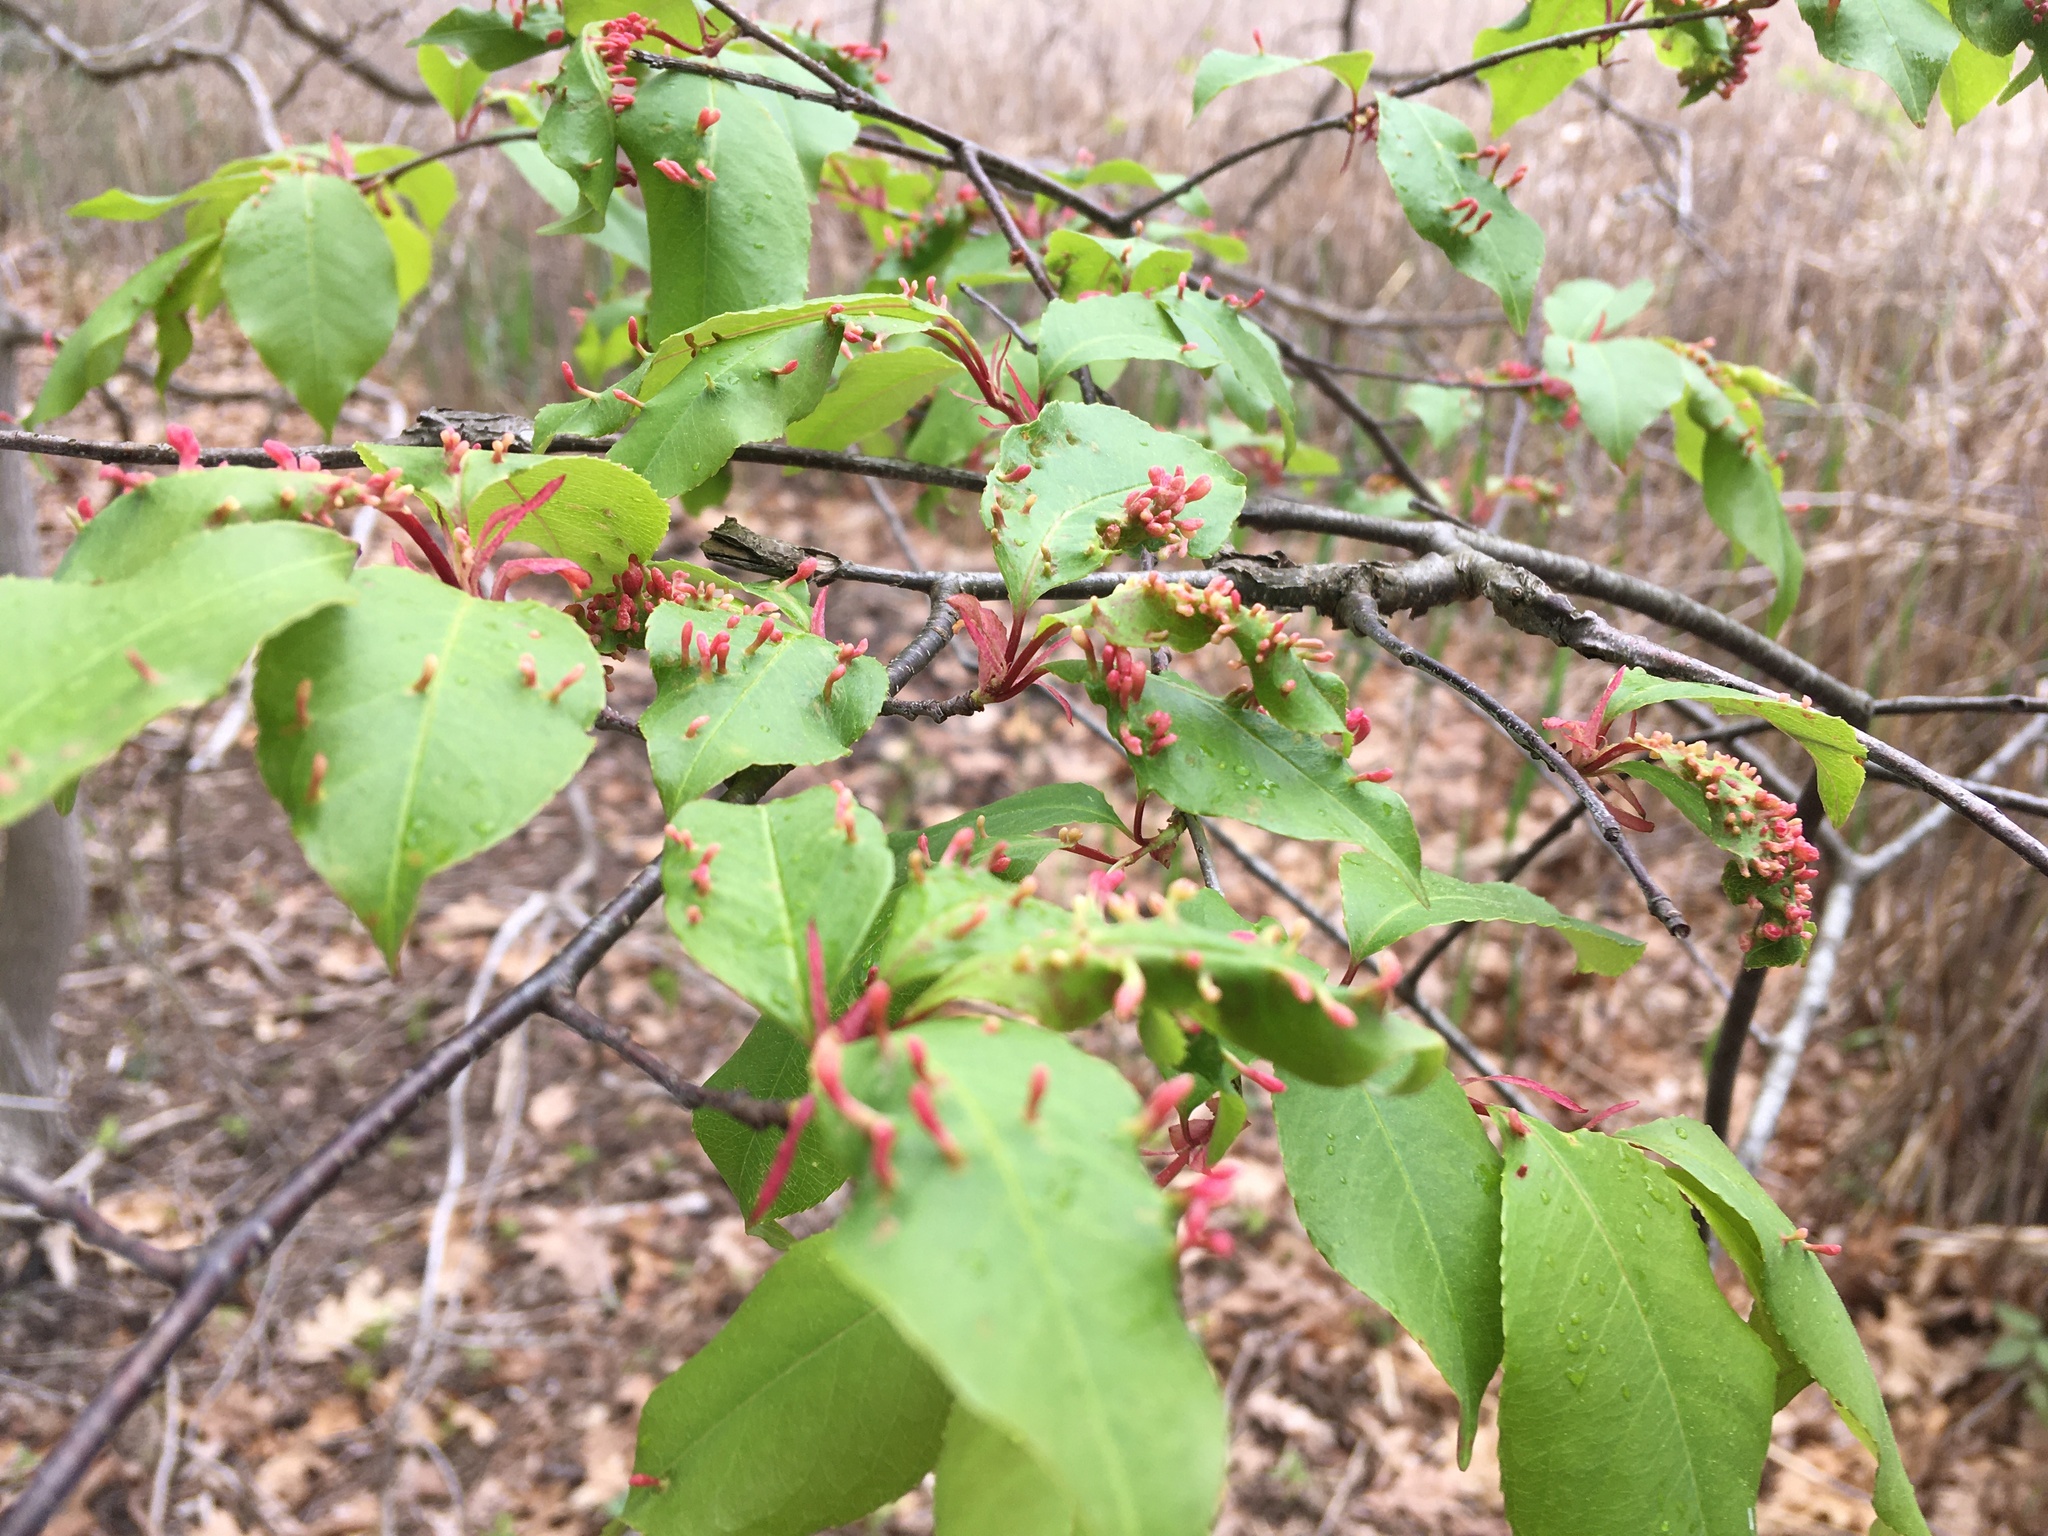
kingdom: Animalia
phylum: Arthropoda
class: Arachnida
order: Trombidiformes
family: Eriophyidae
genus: Eriophyes
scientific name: Eriophyes
